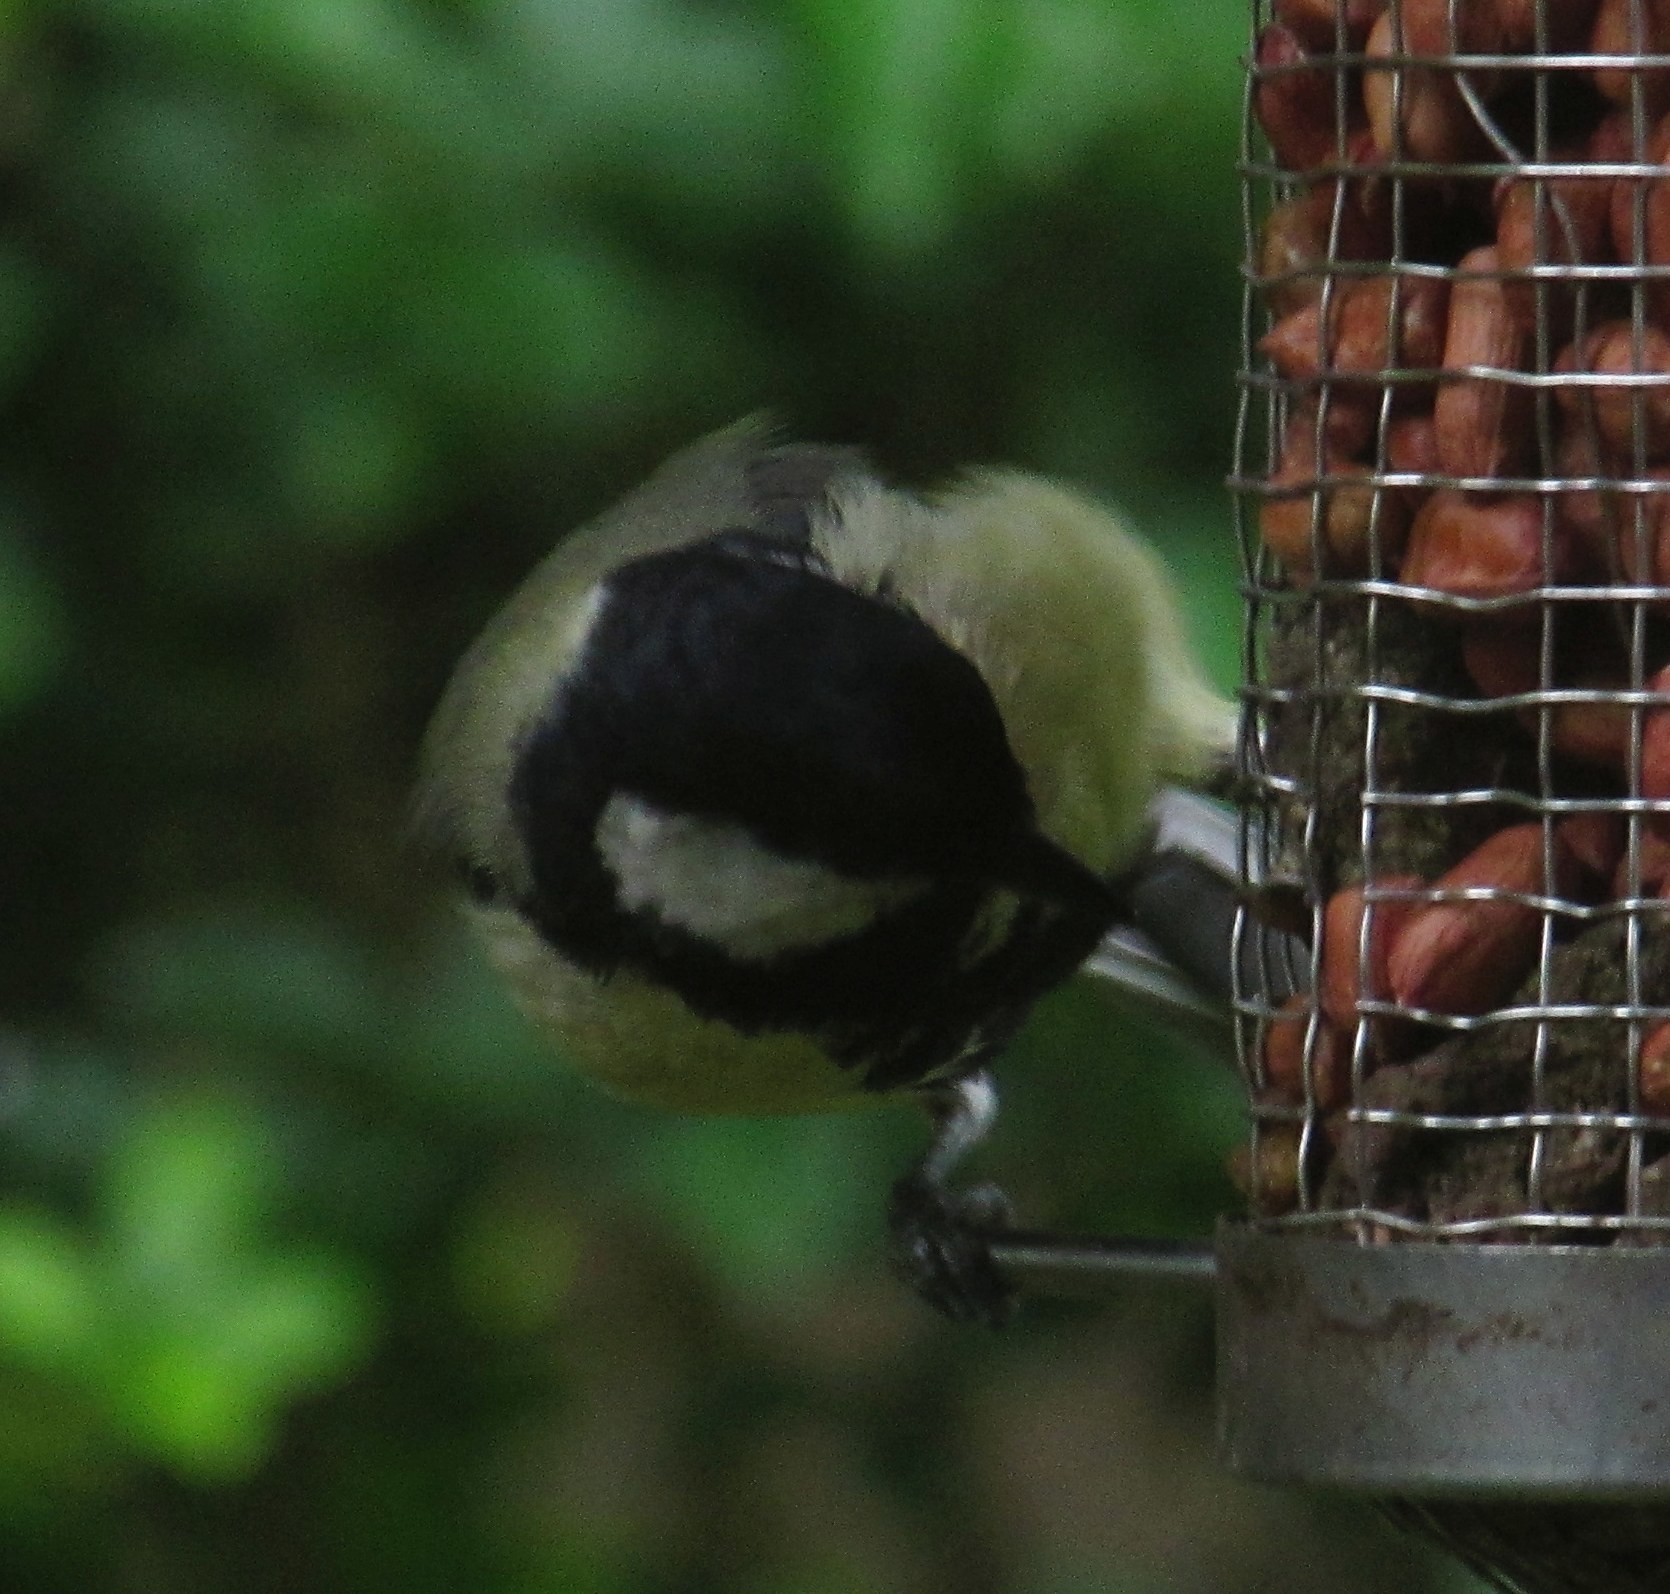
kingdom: Animalia
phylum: Chordata
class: Aves
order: Passeriformes
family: Paridae
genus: Parus
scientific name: Parus major
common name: Great tit
